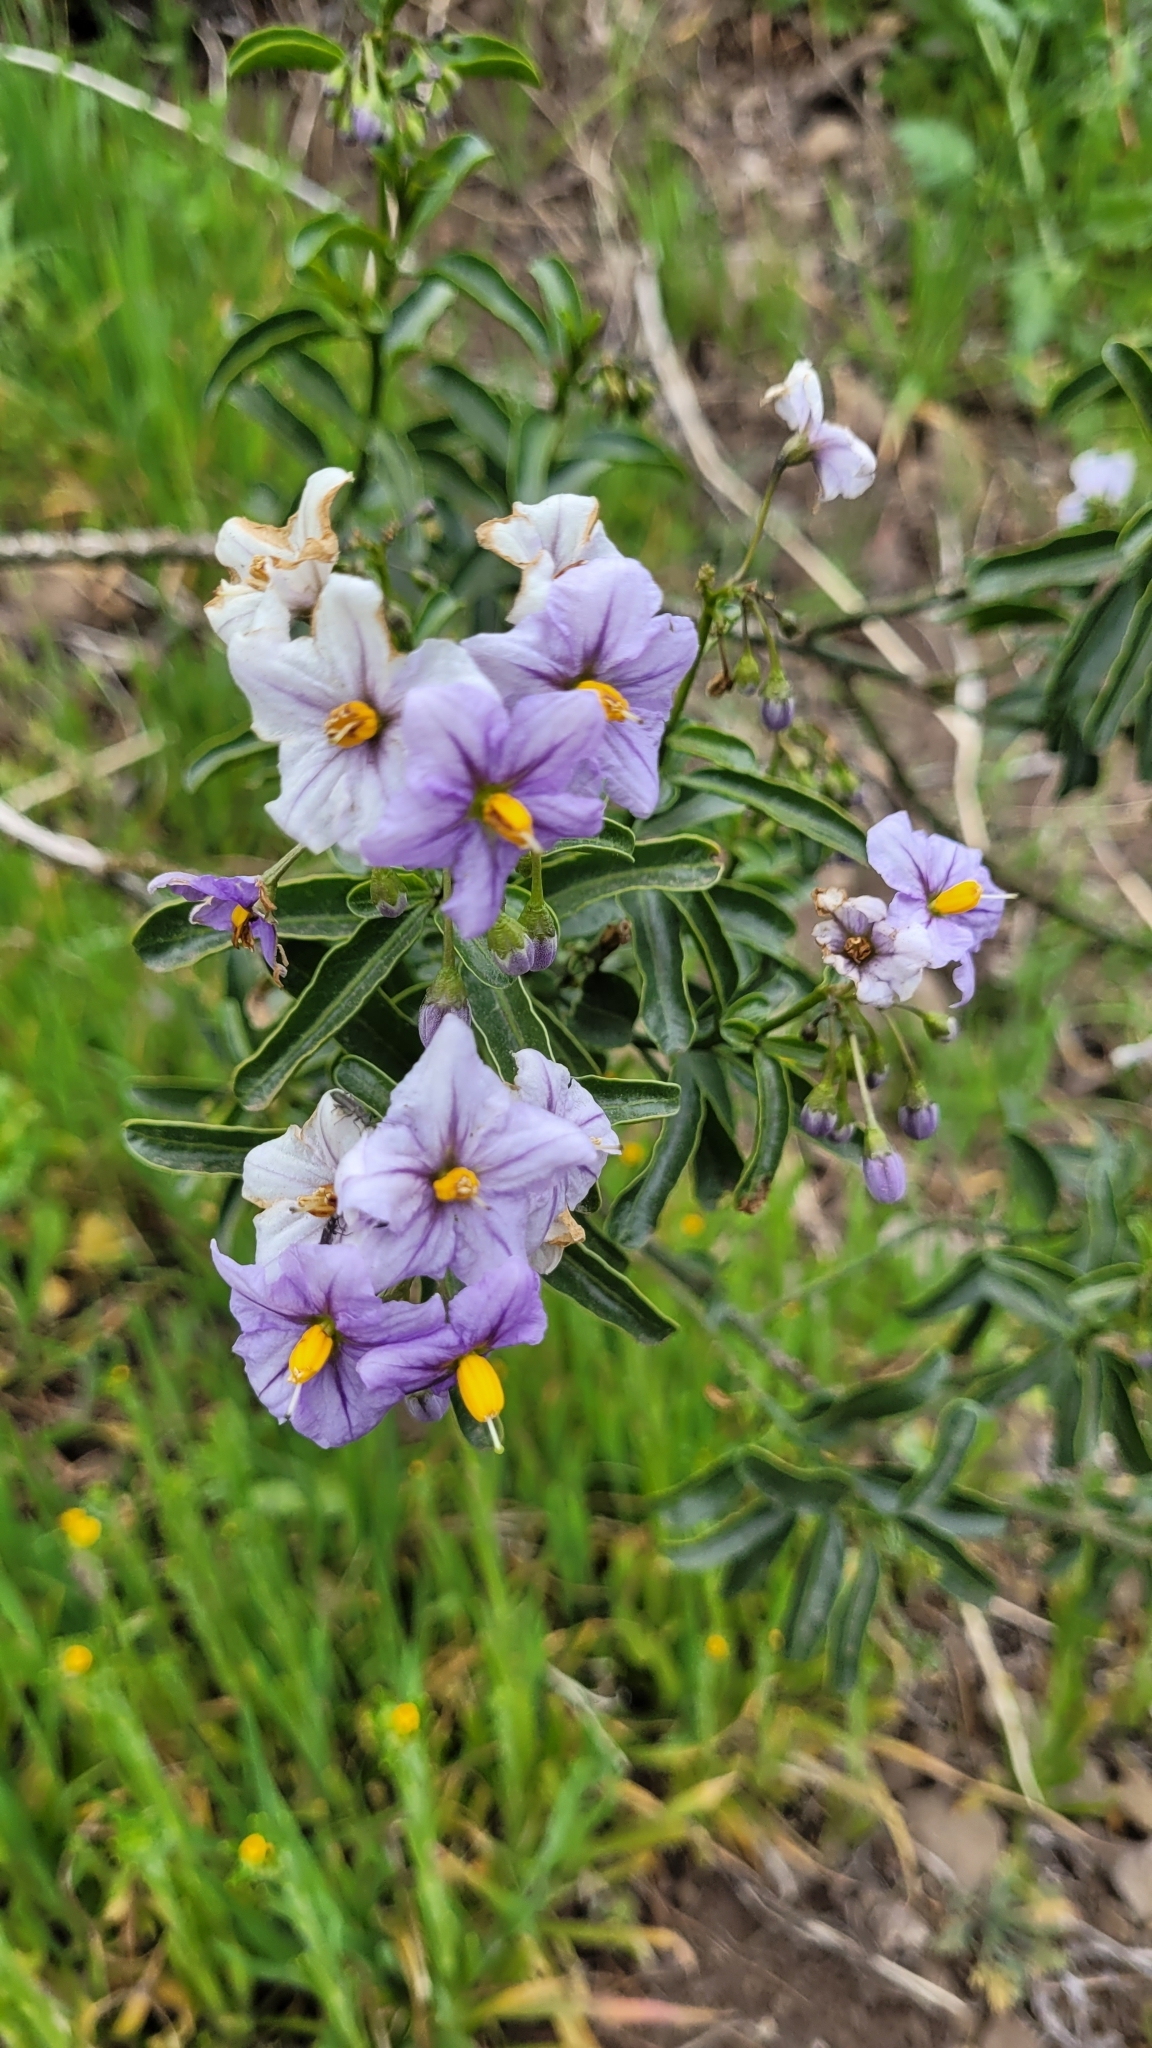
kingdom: Plantae
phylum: Tracheophyta
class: Magnoliopsida
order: Solanales
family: Solanaceae
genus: Solanum
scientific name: Solanum crispum
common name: Chilean nightshade
